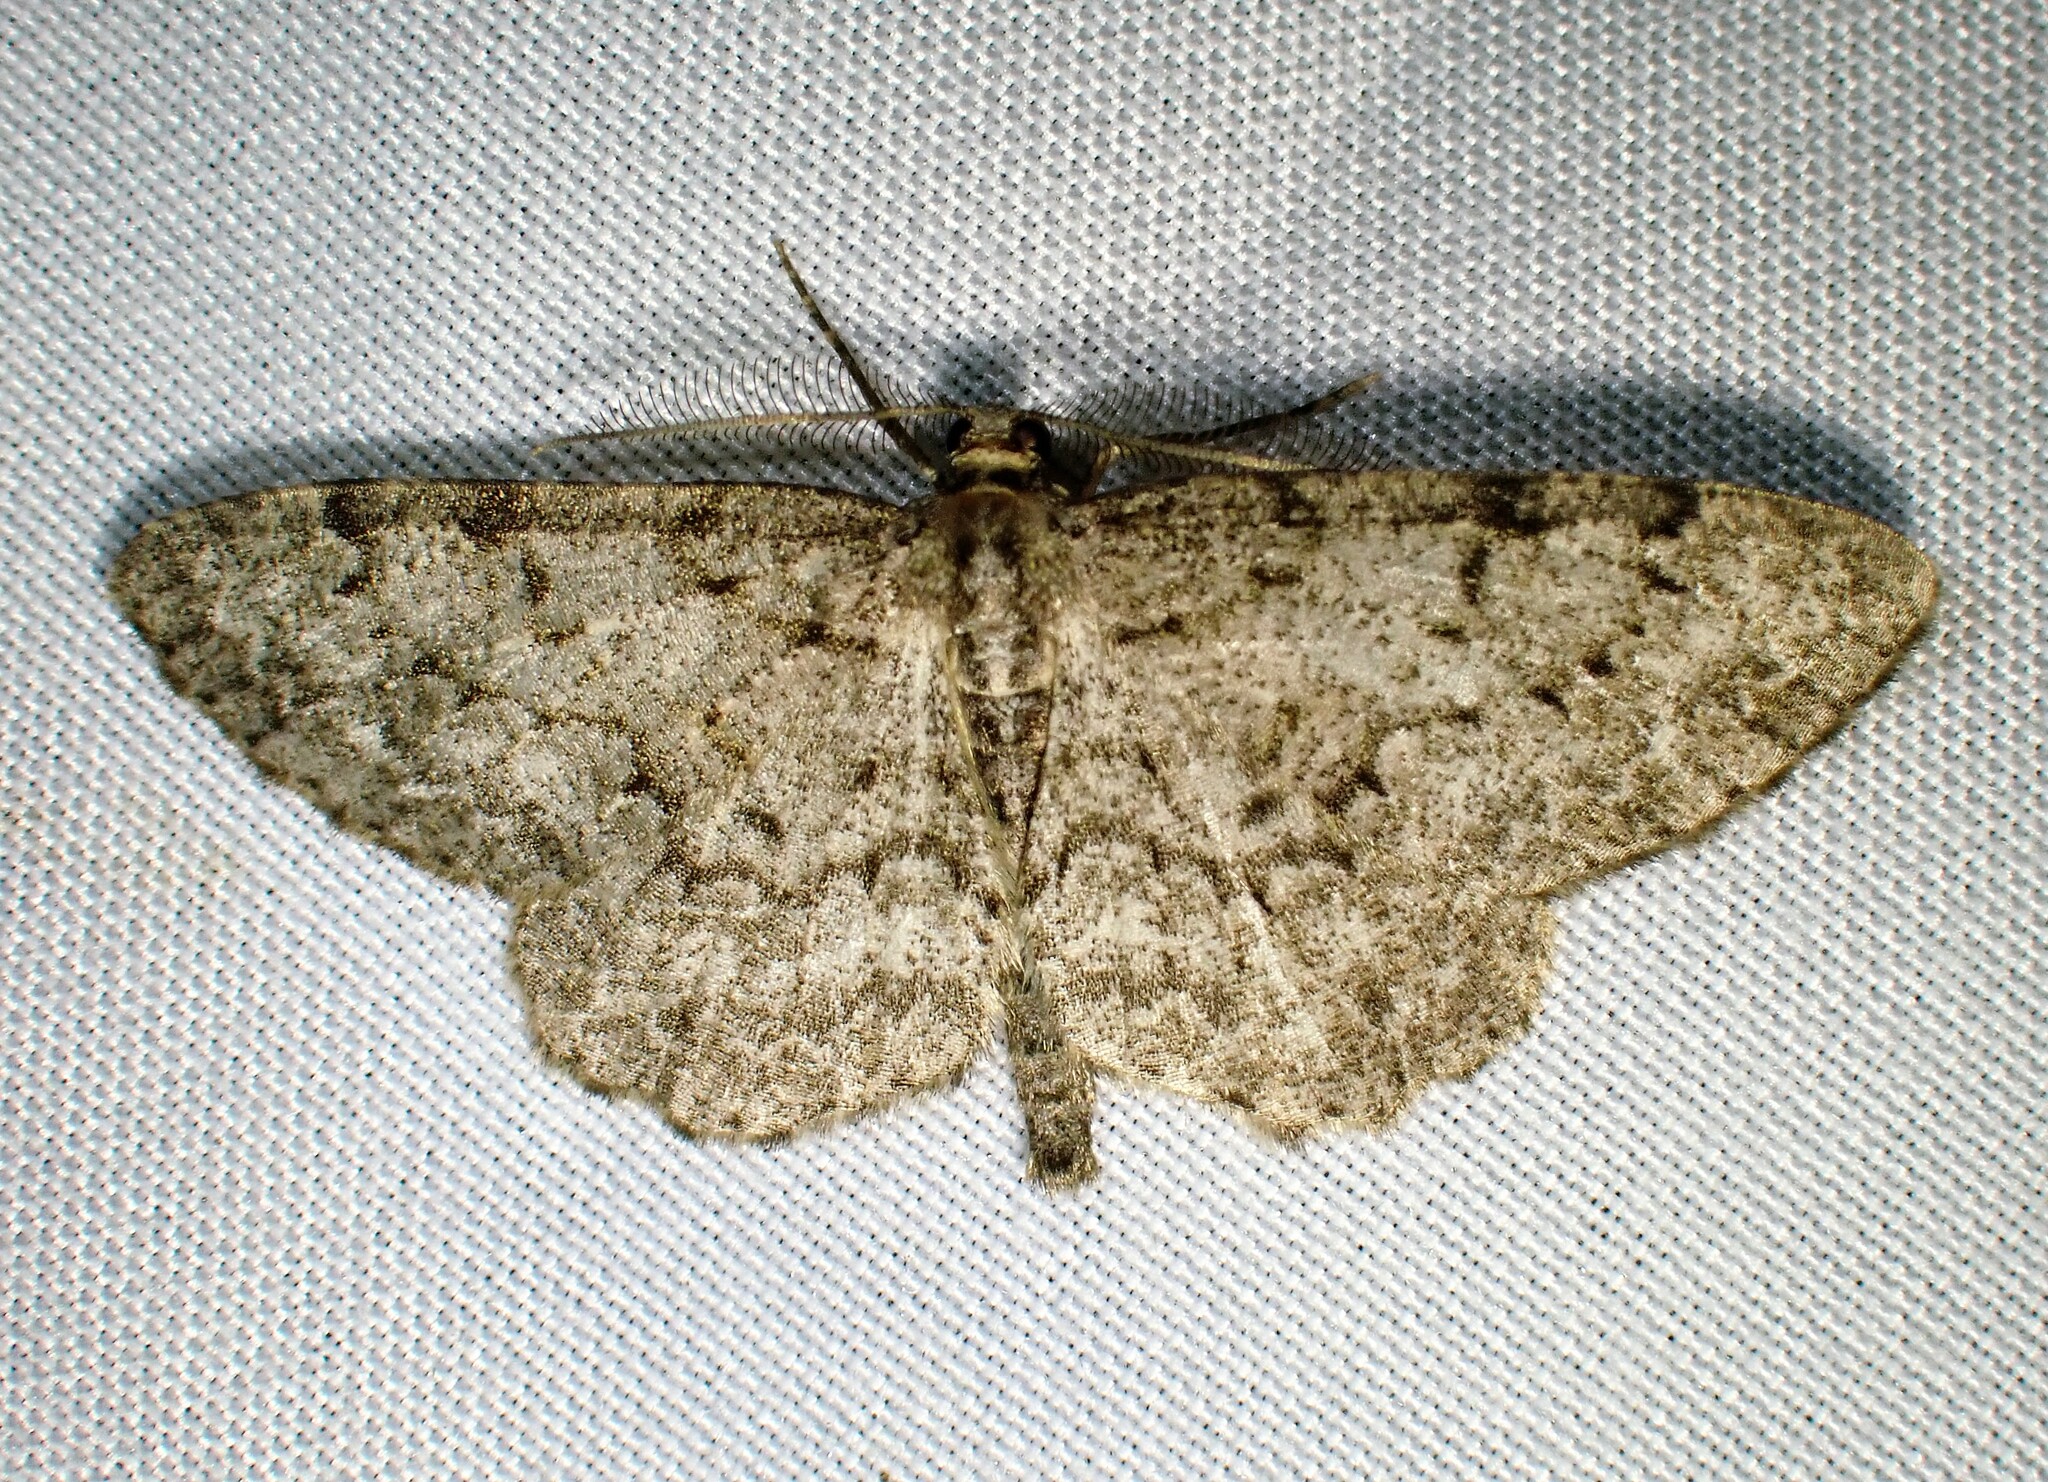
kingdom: Animalia
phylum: Arthropoda
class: Insecta
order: Lepidoptera
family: Geometridae
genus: Protoboarmia
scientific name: Protoboarmia porcelaria
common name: Porcelain gray
